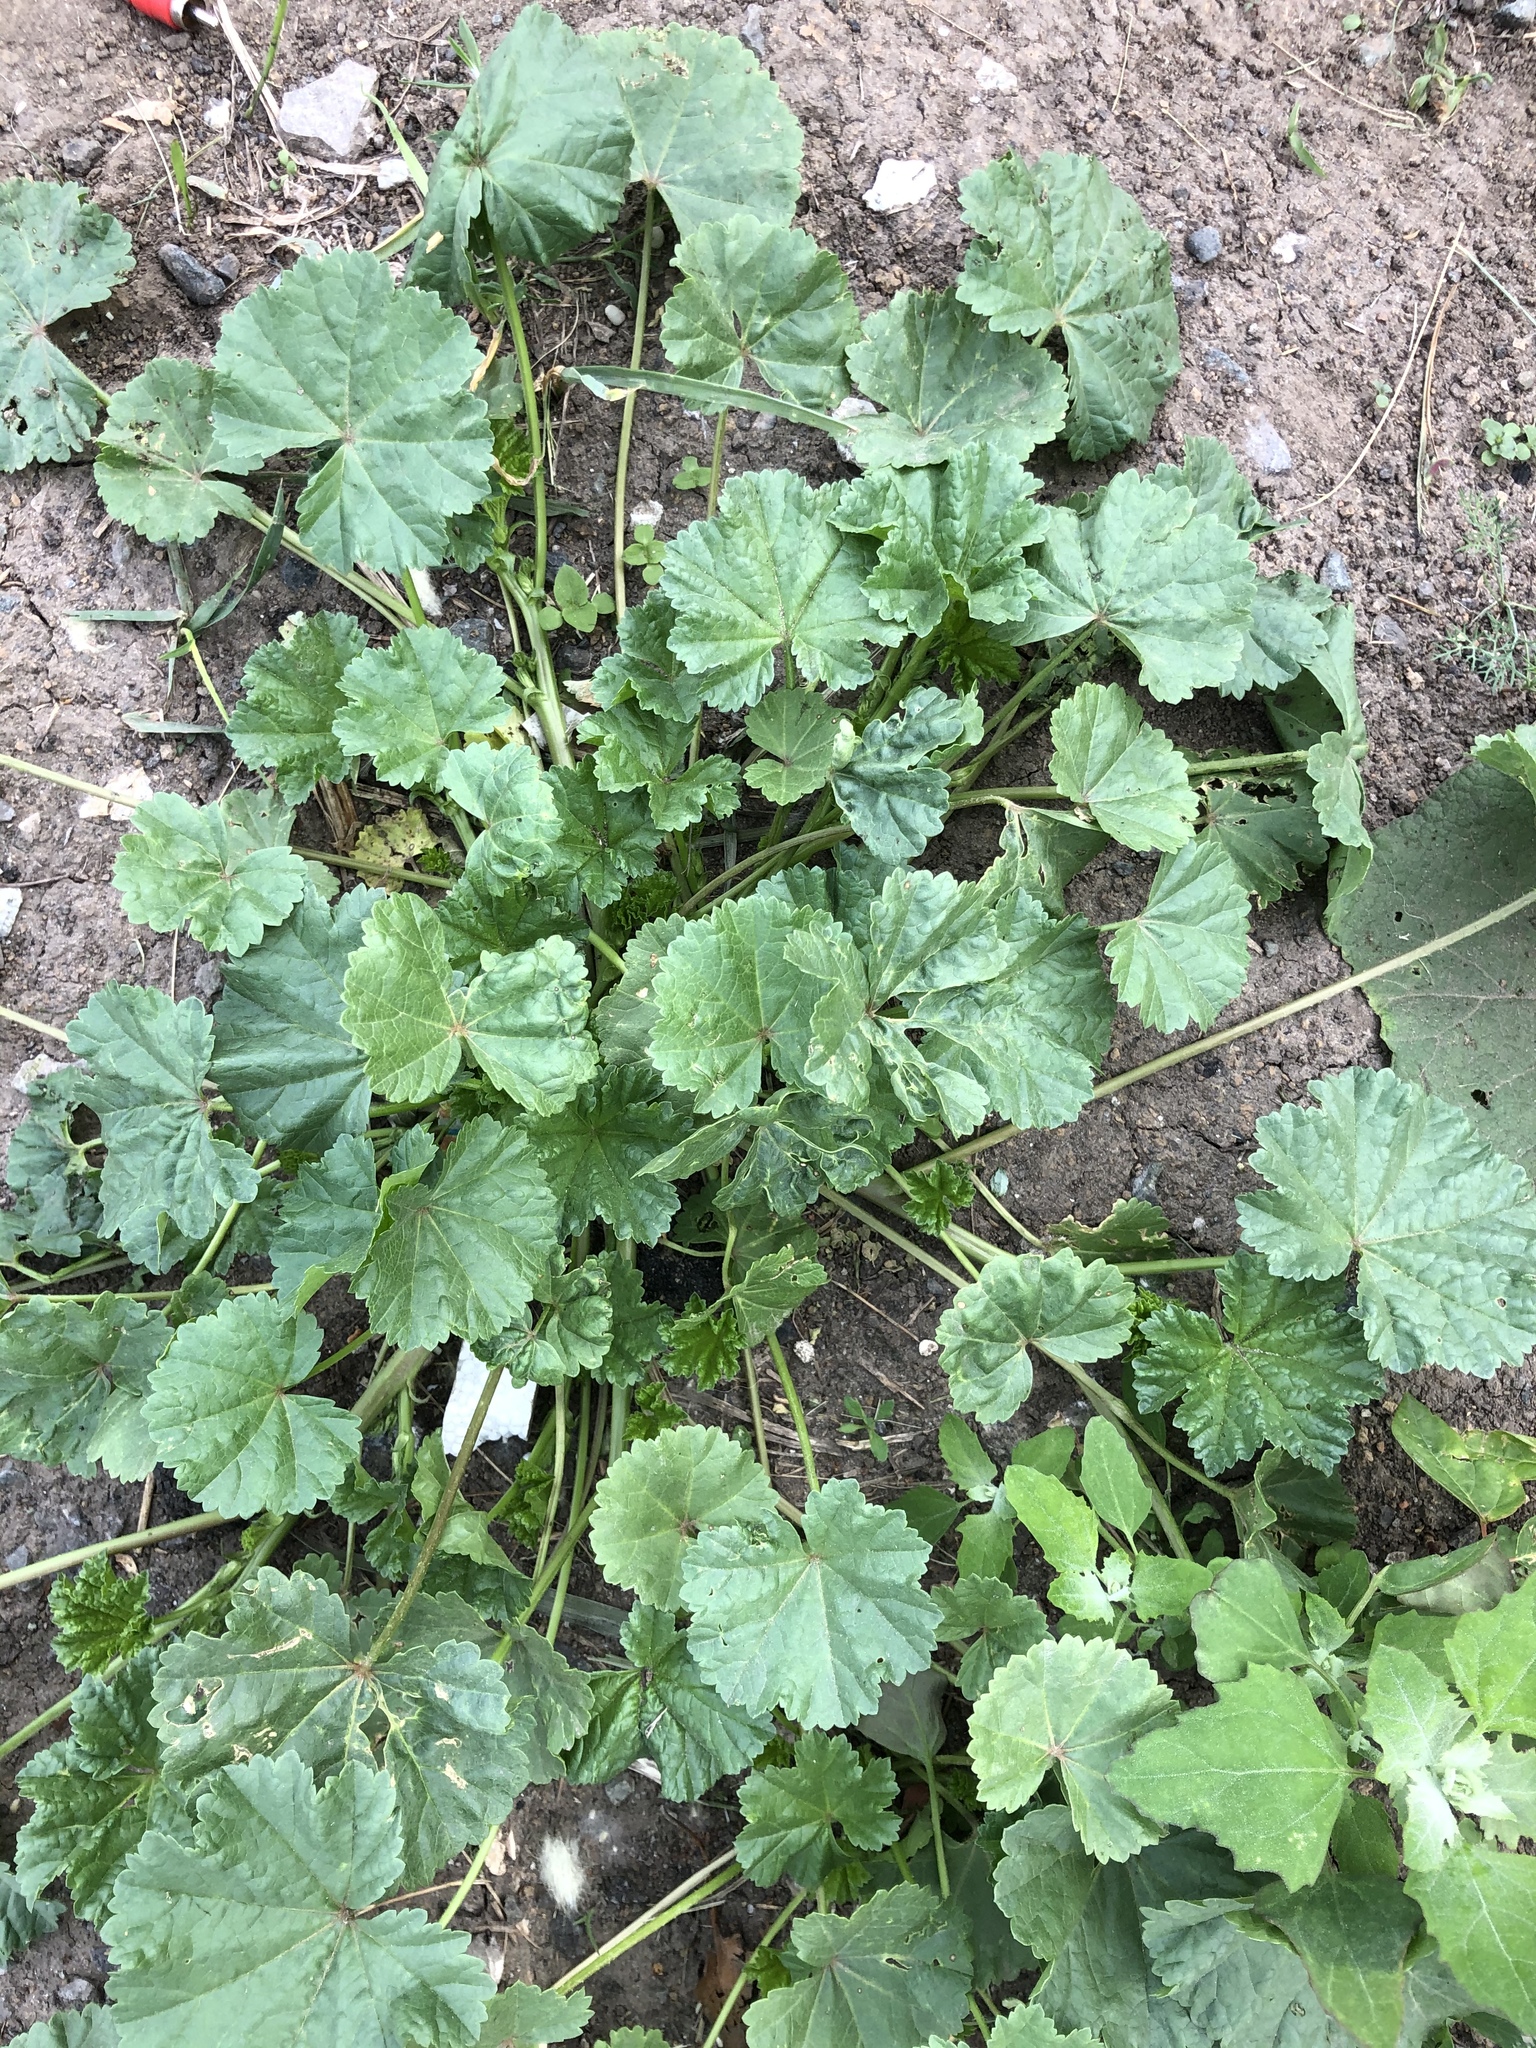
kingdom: Plantae
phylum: Tracheophyta
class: Magnoliopsida
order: Malvales
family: Malvaceae
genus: Malva
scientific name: Malva pusilla
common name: Small mallow
